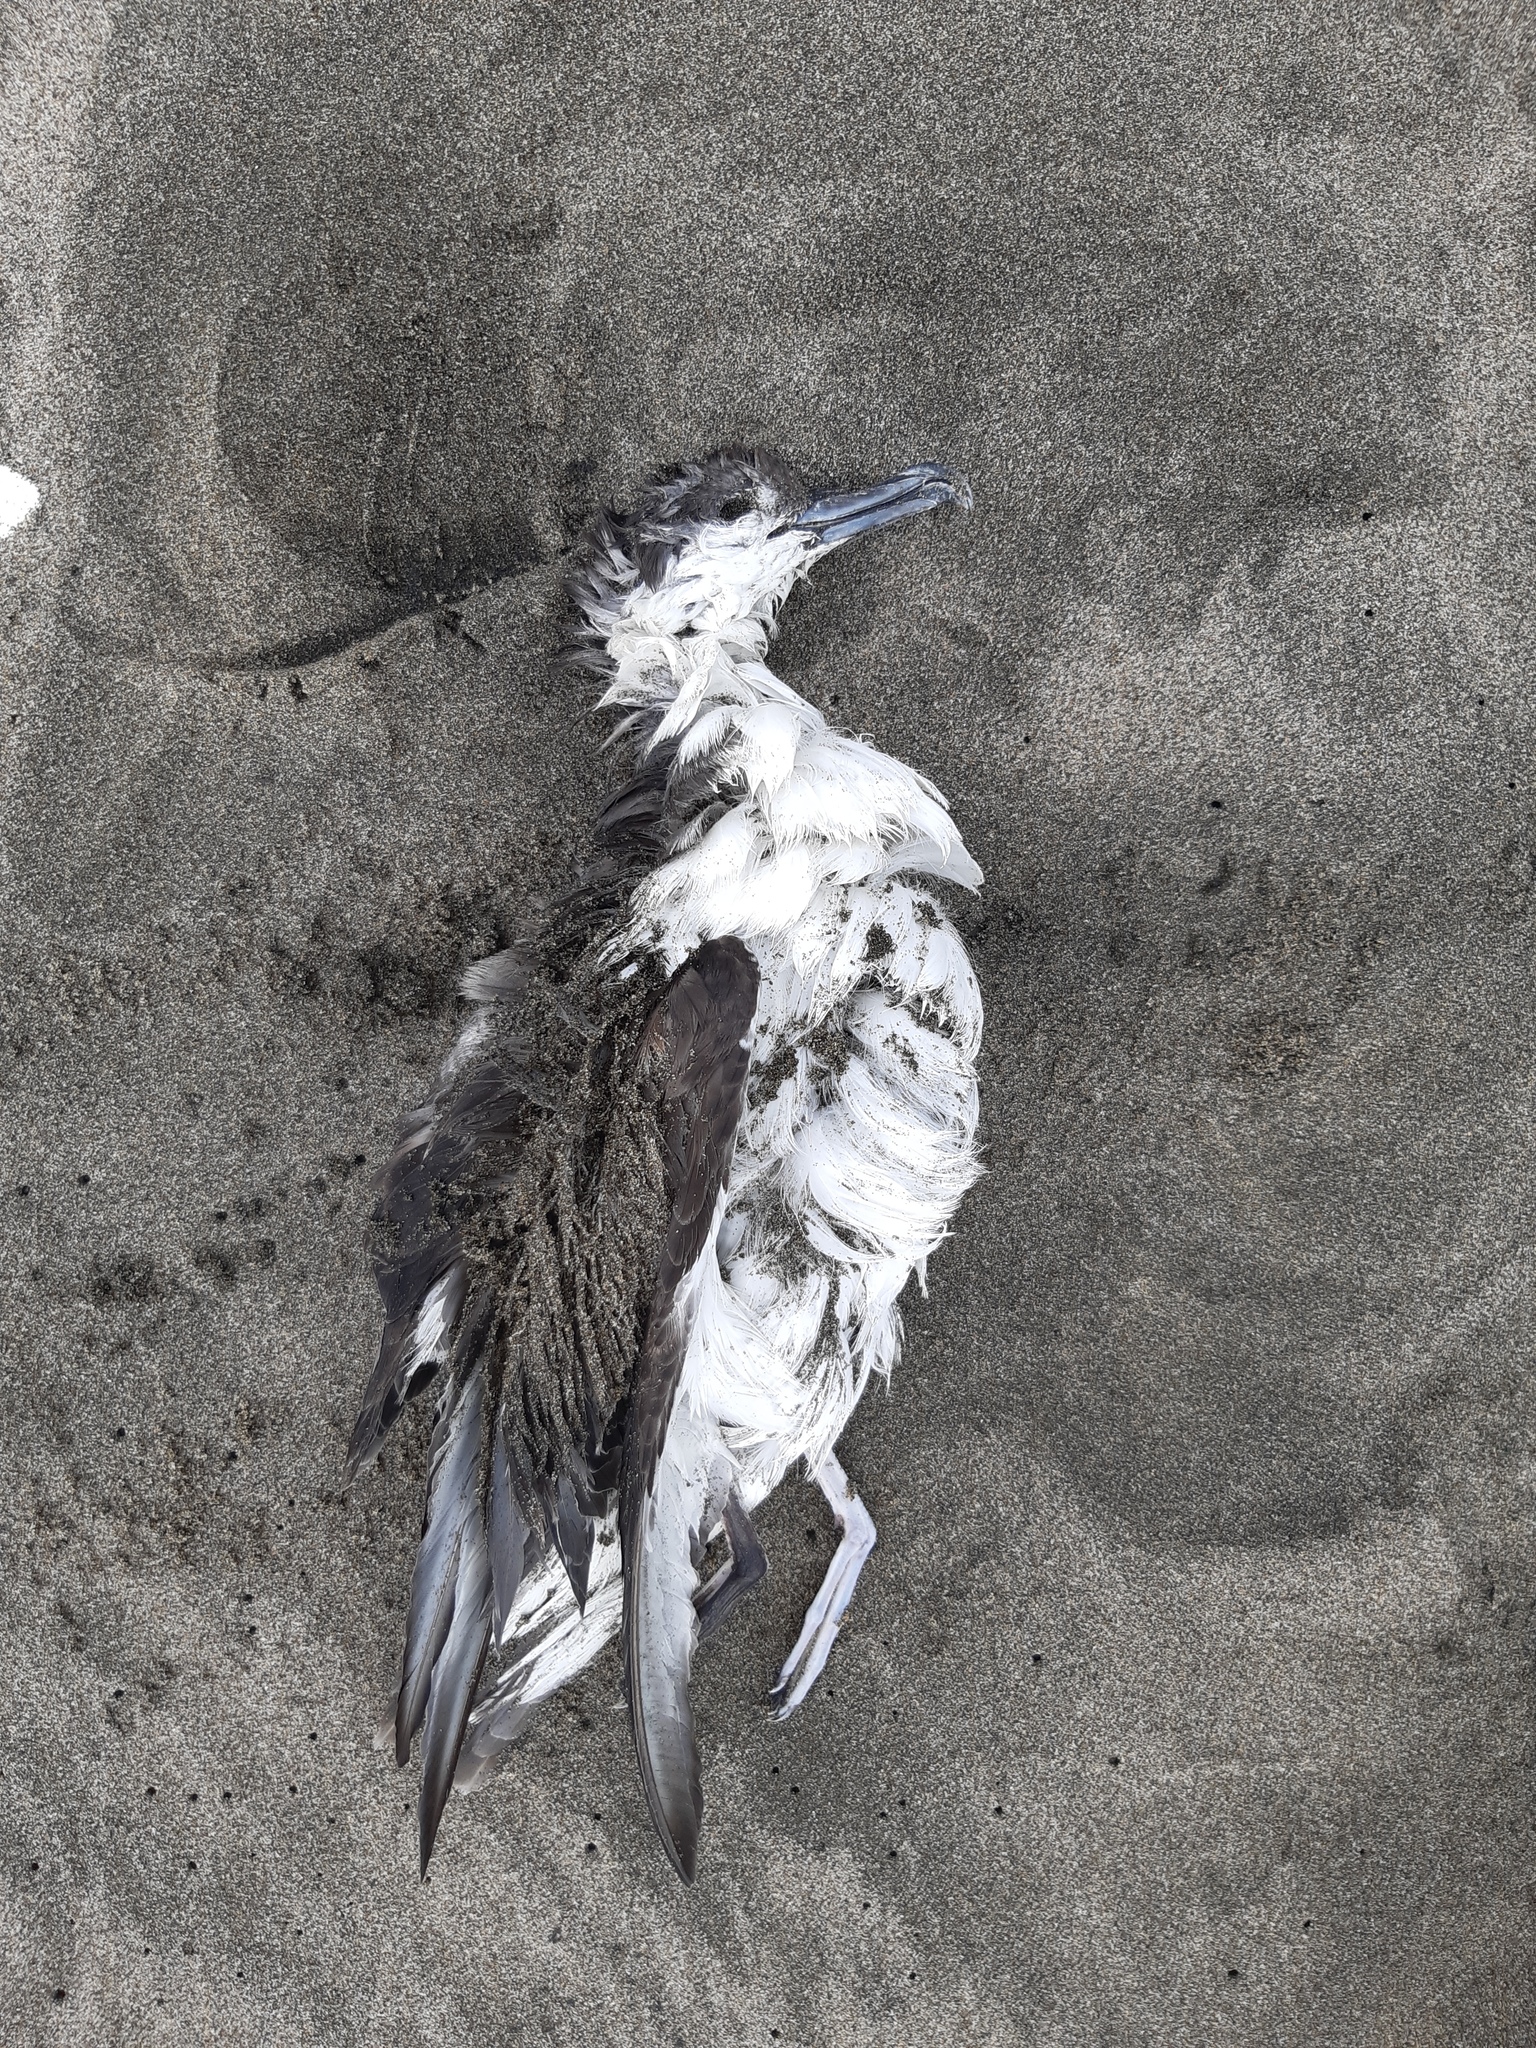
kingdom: Animalia
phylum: Chordata
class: Aves
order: Procellariiformes
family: Procellariidae
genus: Puffinus
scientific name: Puffinus bulleri
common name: Buller's shearwater
